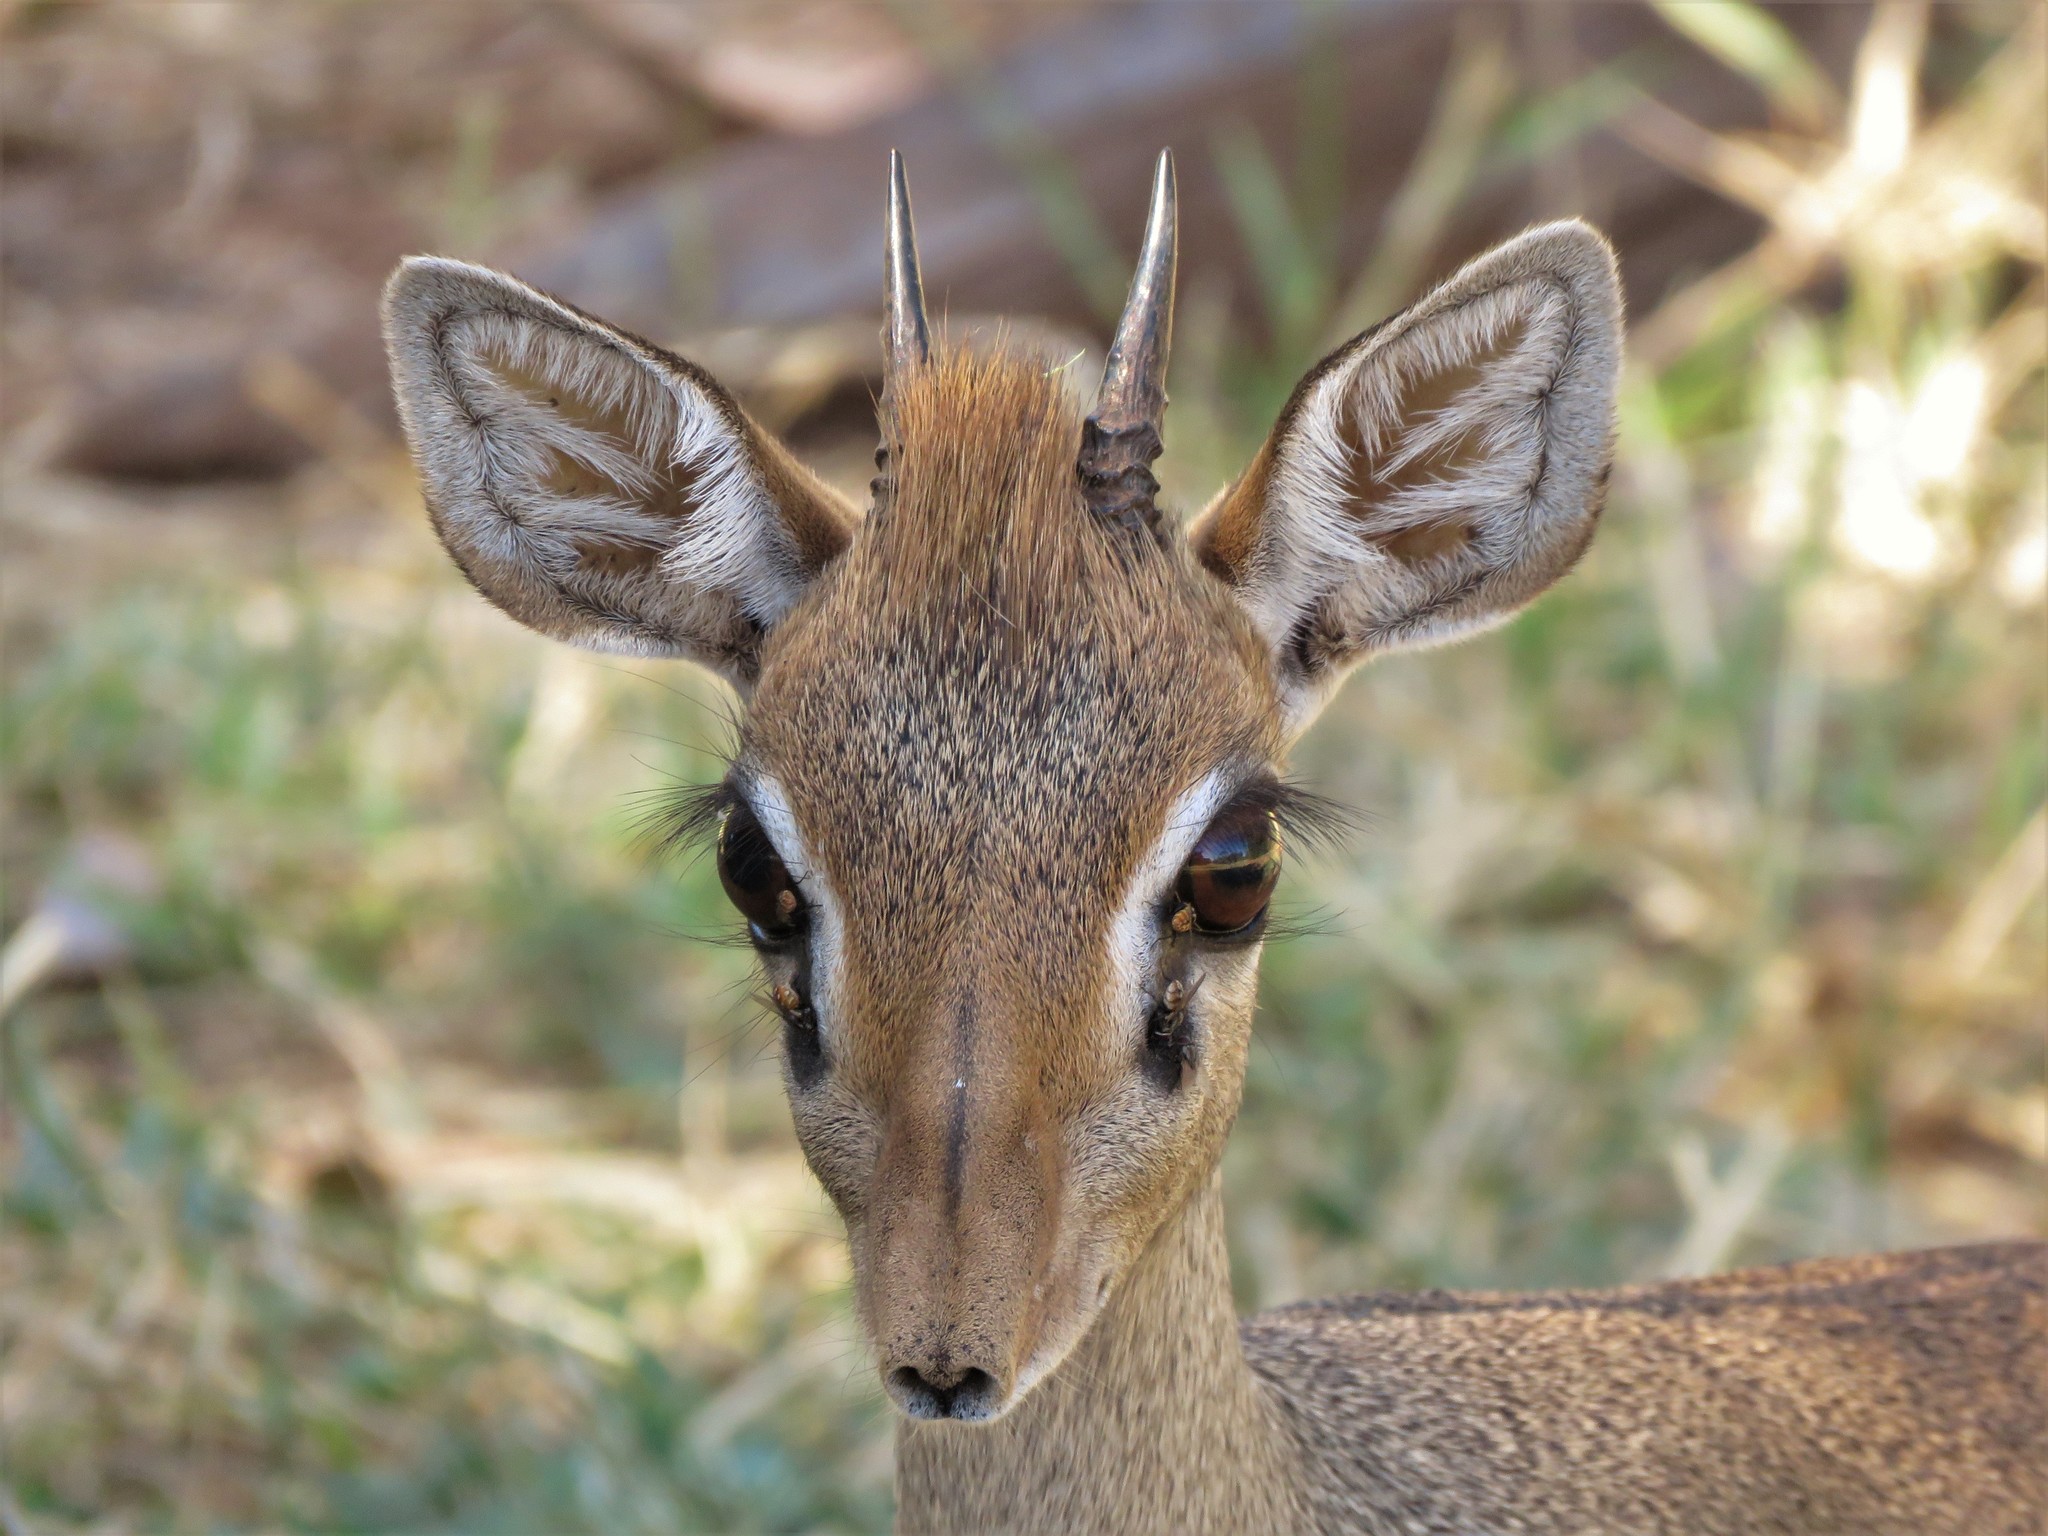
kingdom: Animalia
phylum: Chordata
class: Mammalia
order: Artiodactyla
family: Bovidae
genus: Madoqua
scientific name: Madoqua guentheri
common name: Günther's dikdik
